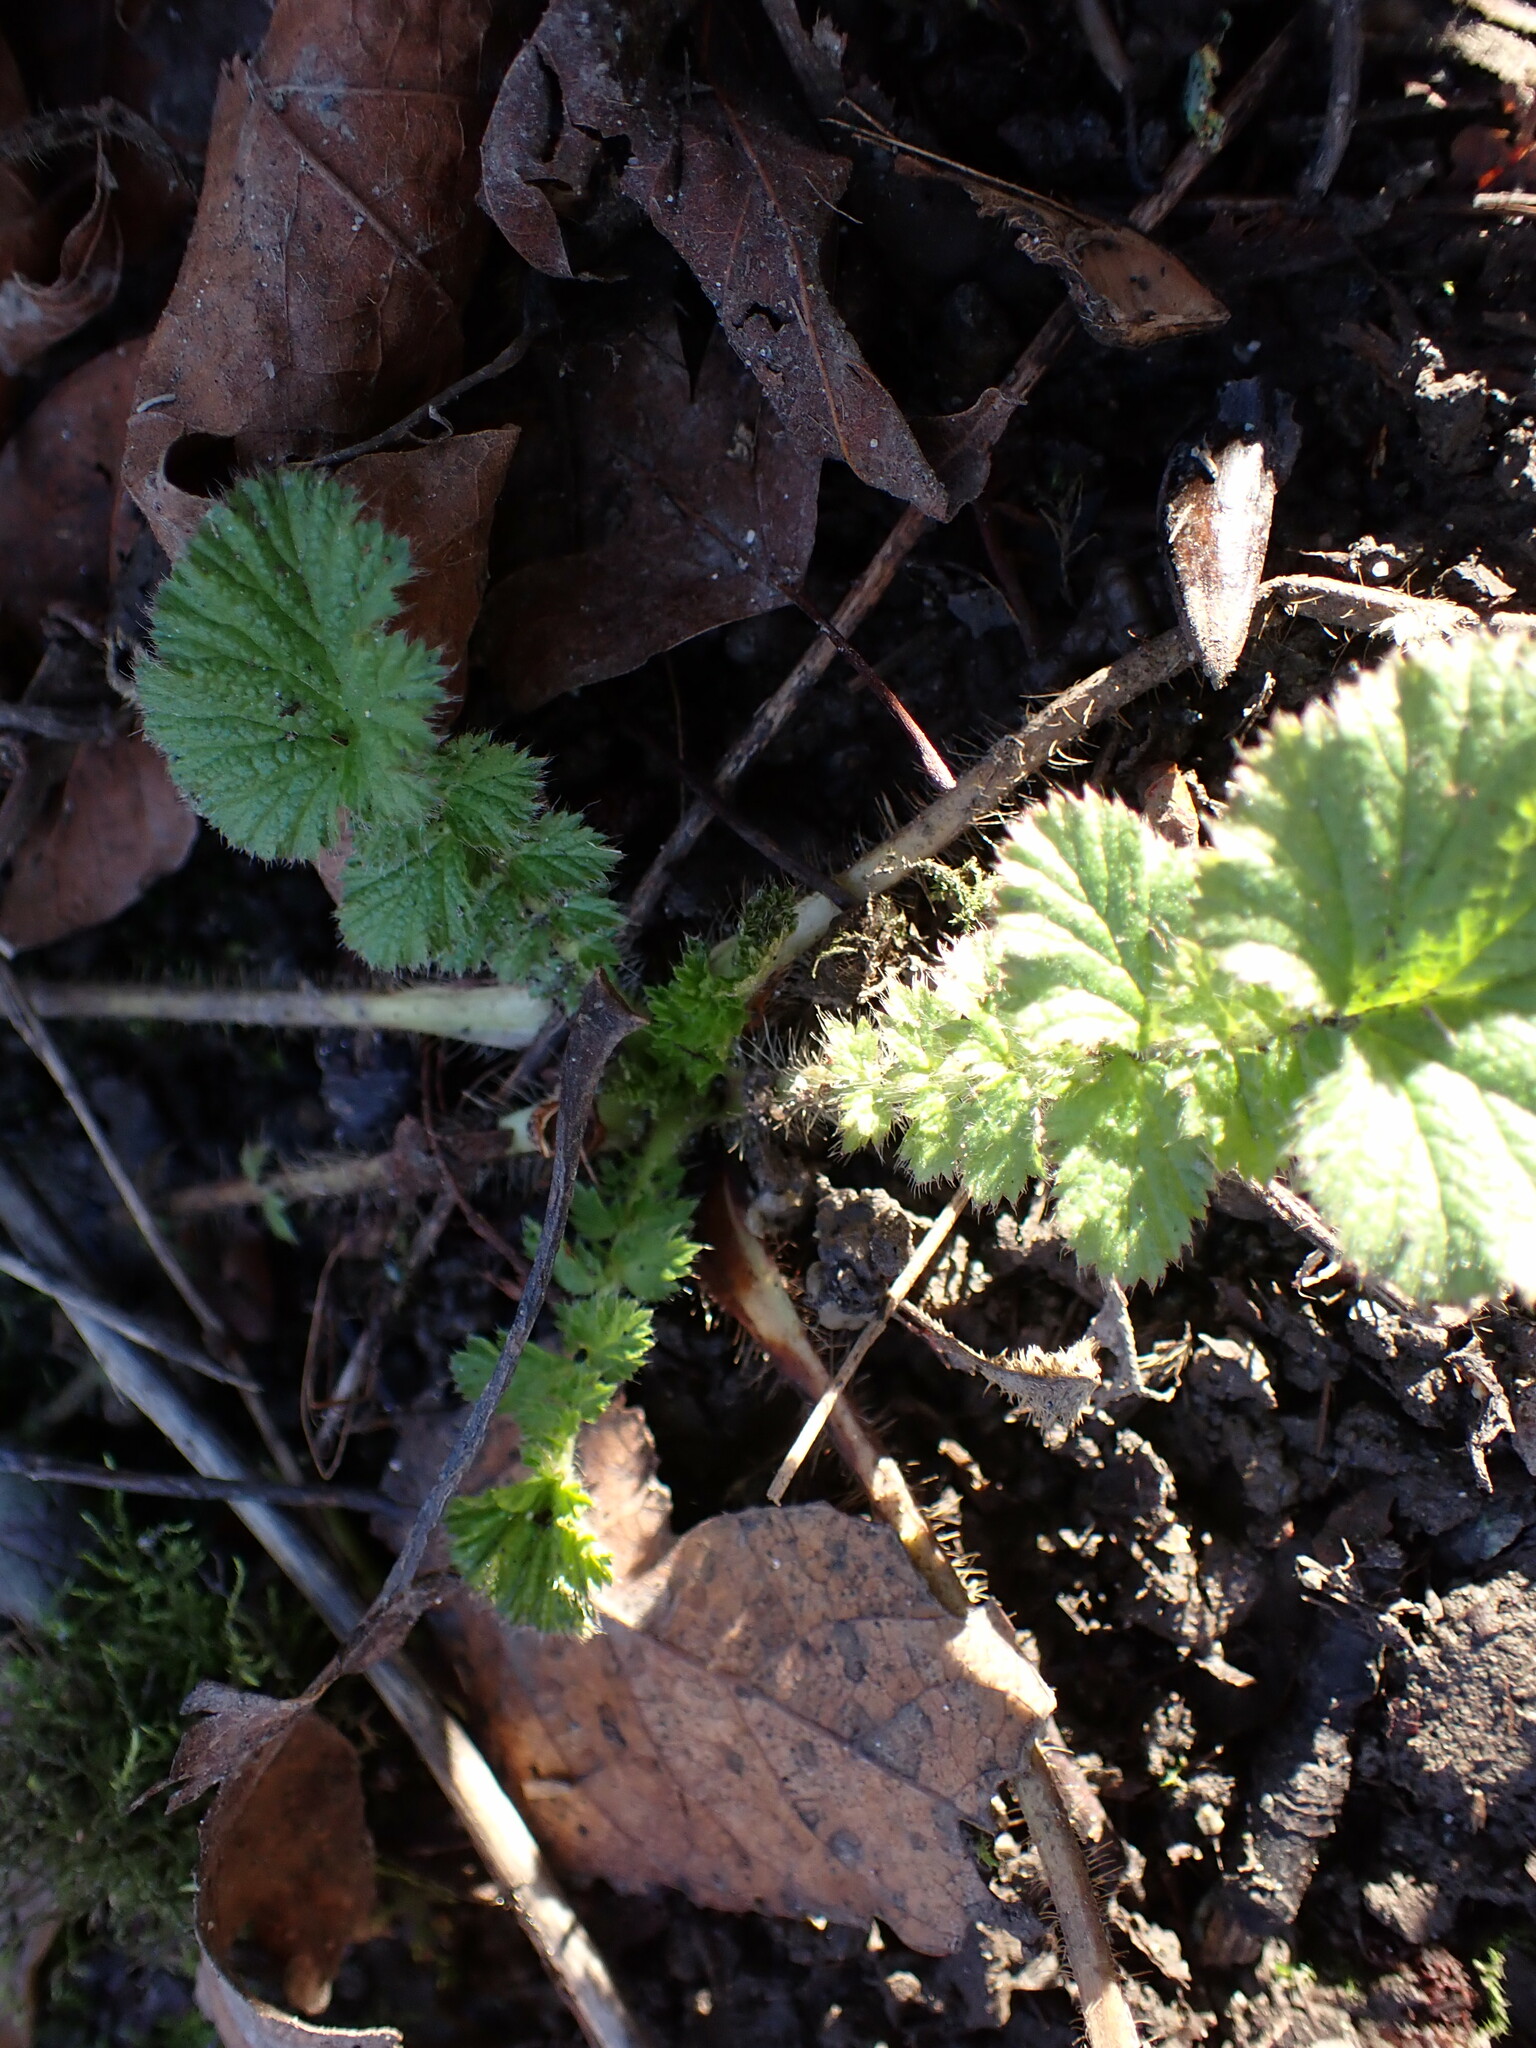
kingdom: Plantae
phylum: Tracheophyta
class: Magnoliopsida
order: Rosales
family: Rosaceae
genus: Geum
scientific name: Geum macrophyllum
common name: Large-leaved avens
